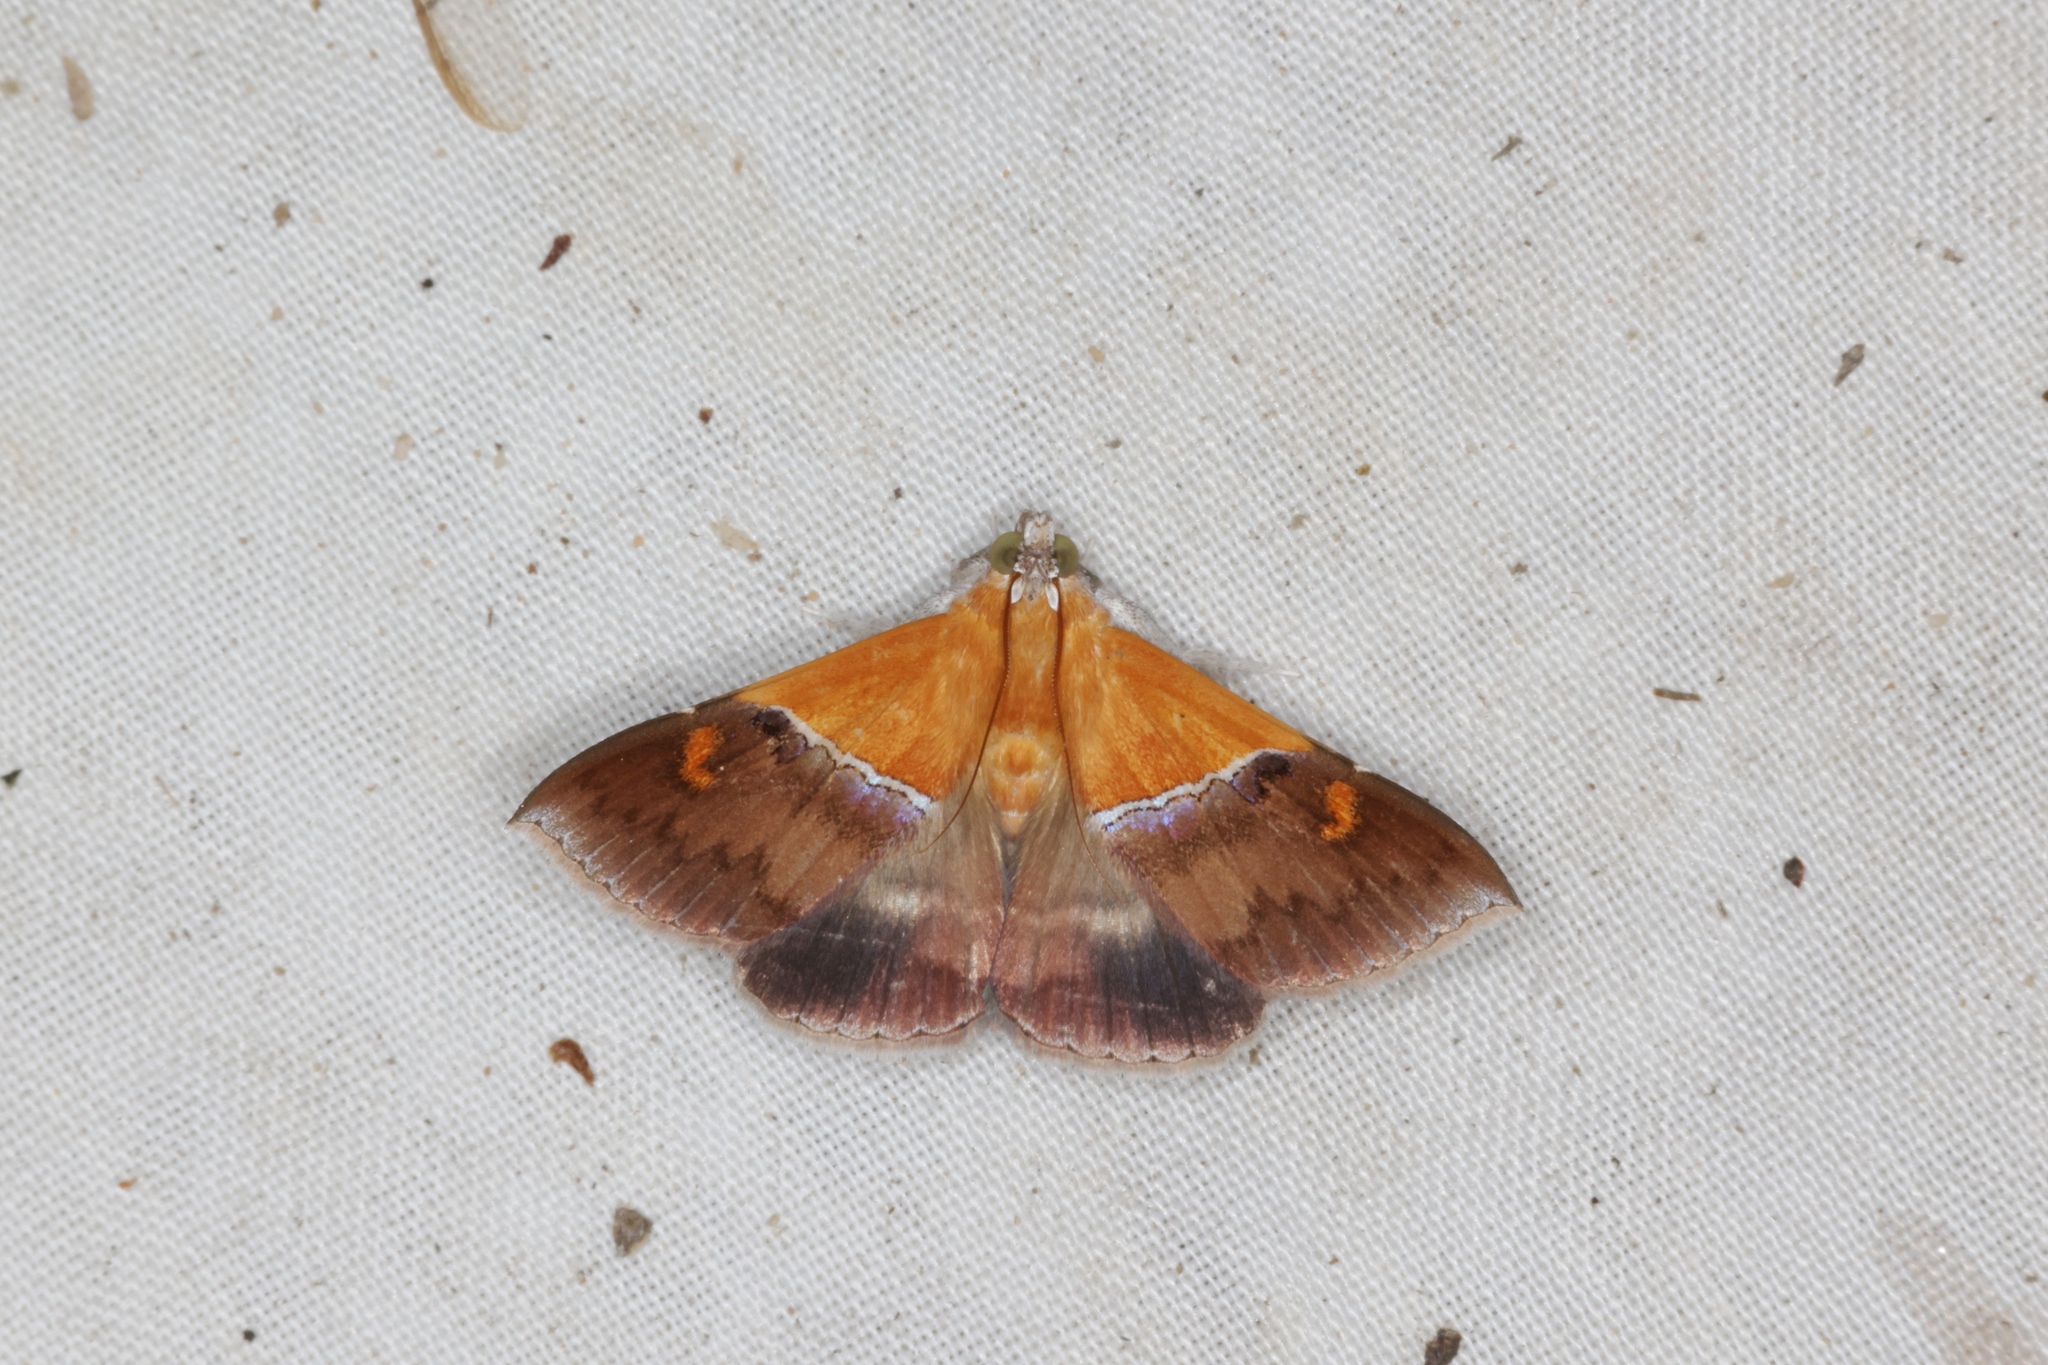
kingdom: Animalia
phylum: Arthropoda
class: Insecta
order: Lepidoptera
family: Erebidae
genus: Sympis
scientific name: Sympis rufibasis
